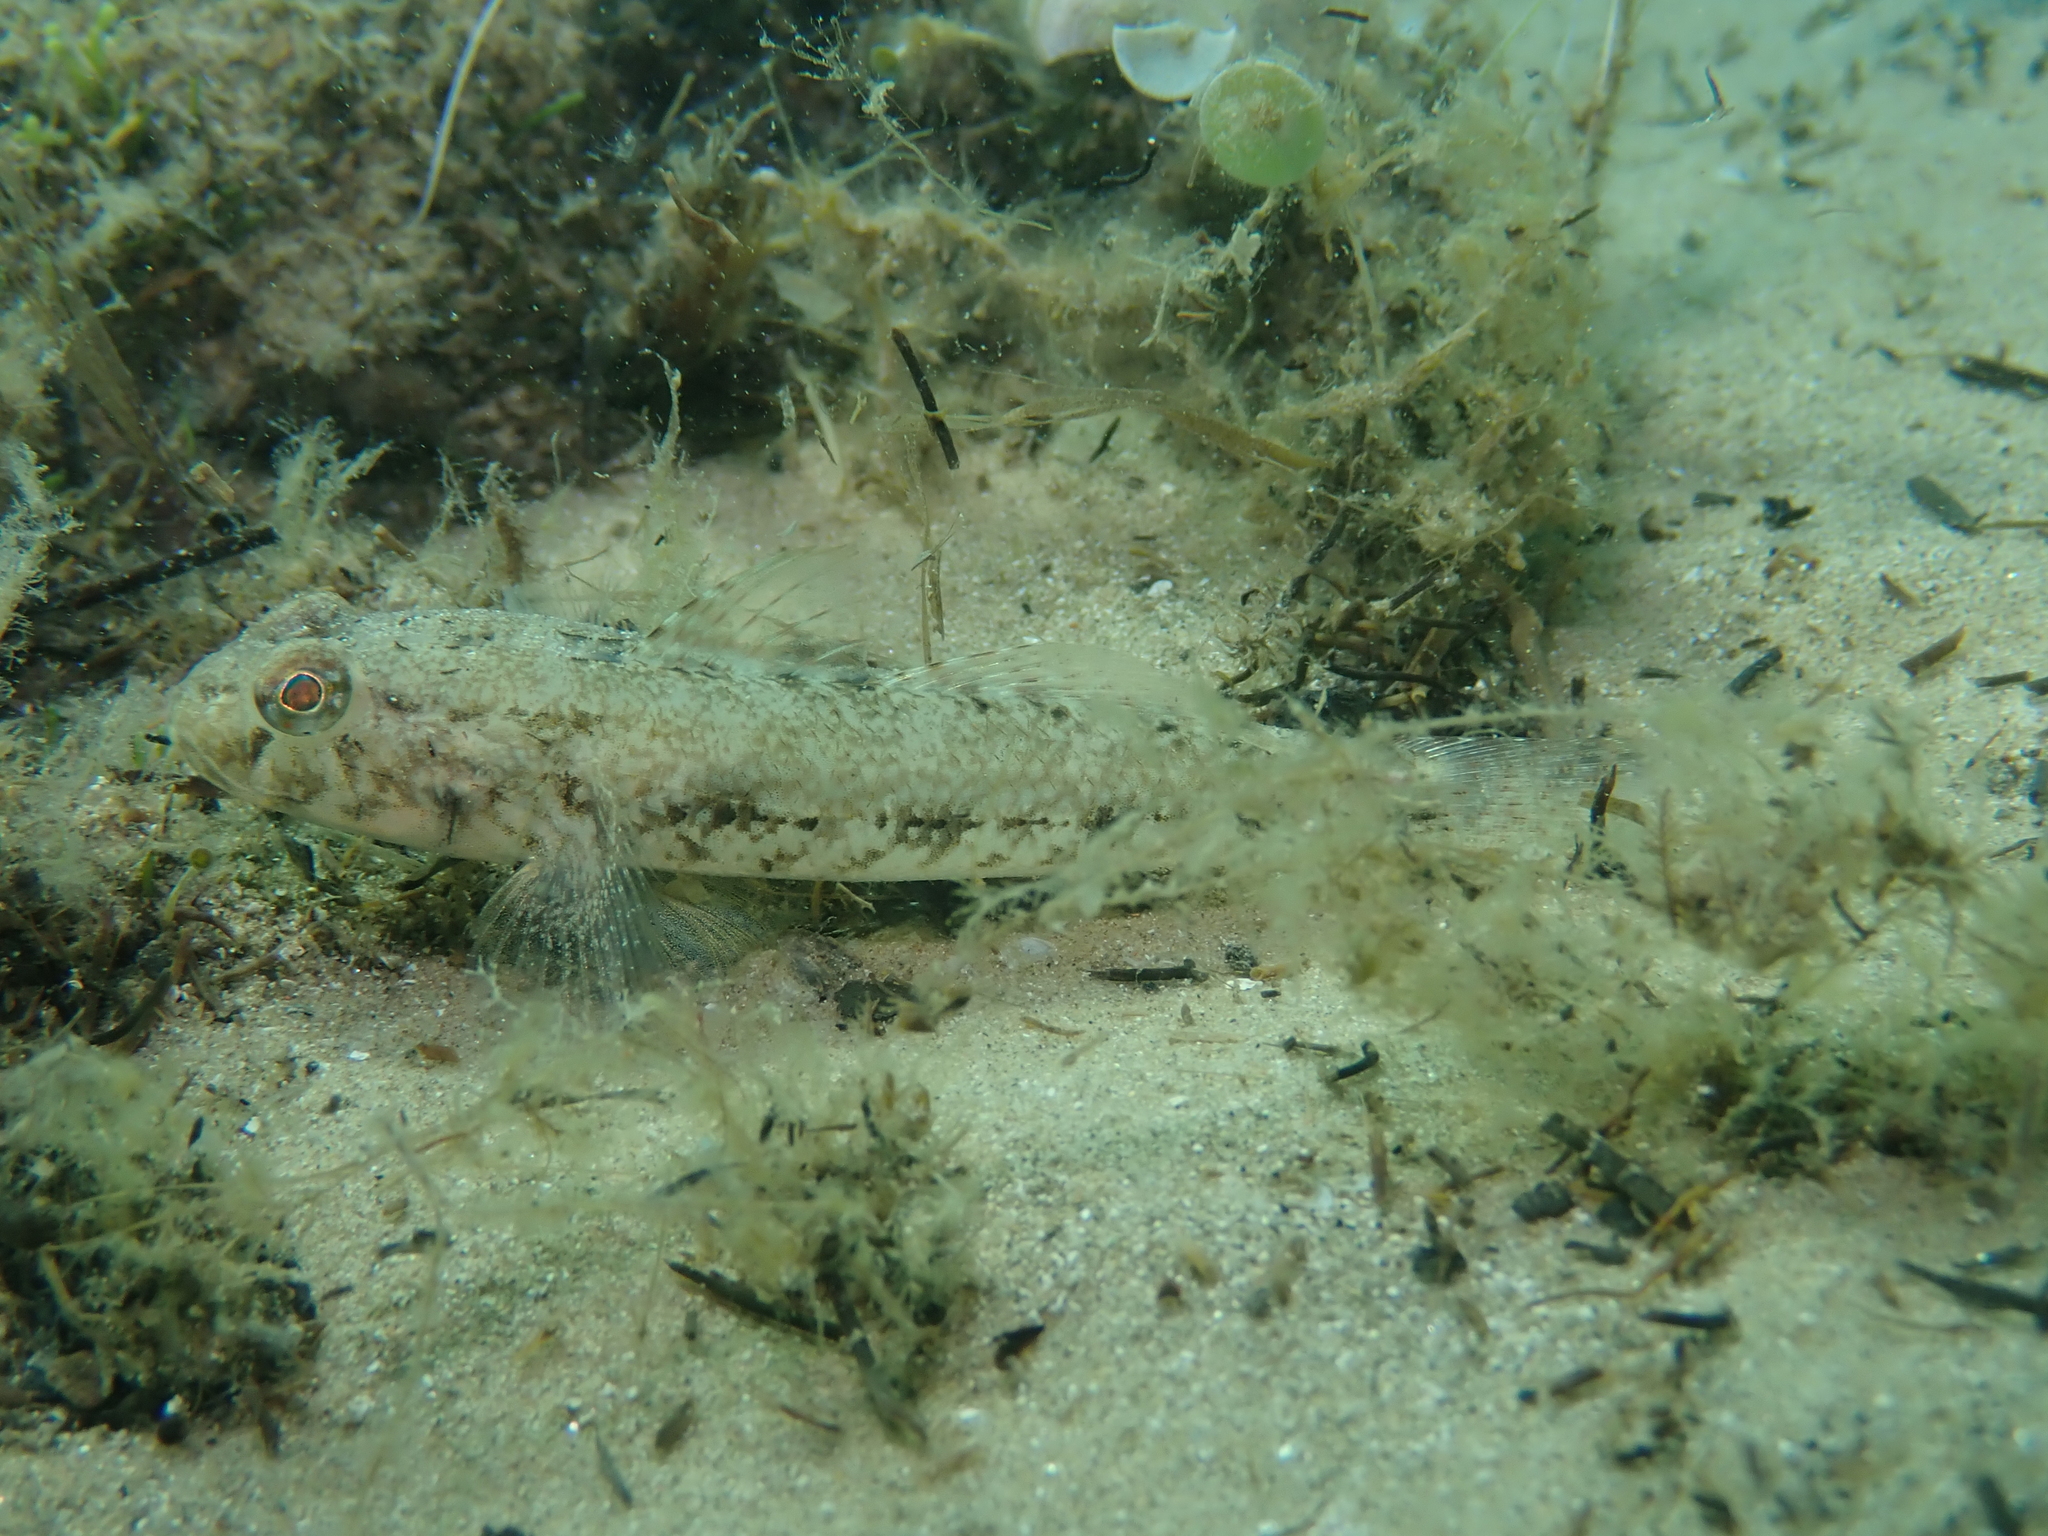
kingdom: Animalia
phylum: Chordata
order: Perciformes
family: Gobiidae
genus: Gobius
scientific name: Gobius niger
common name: Black goby
